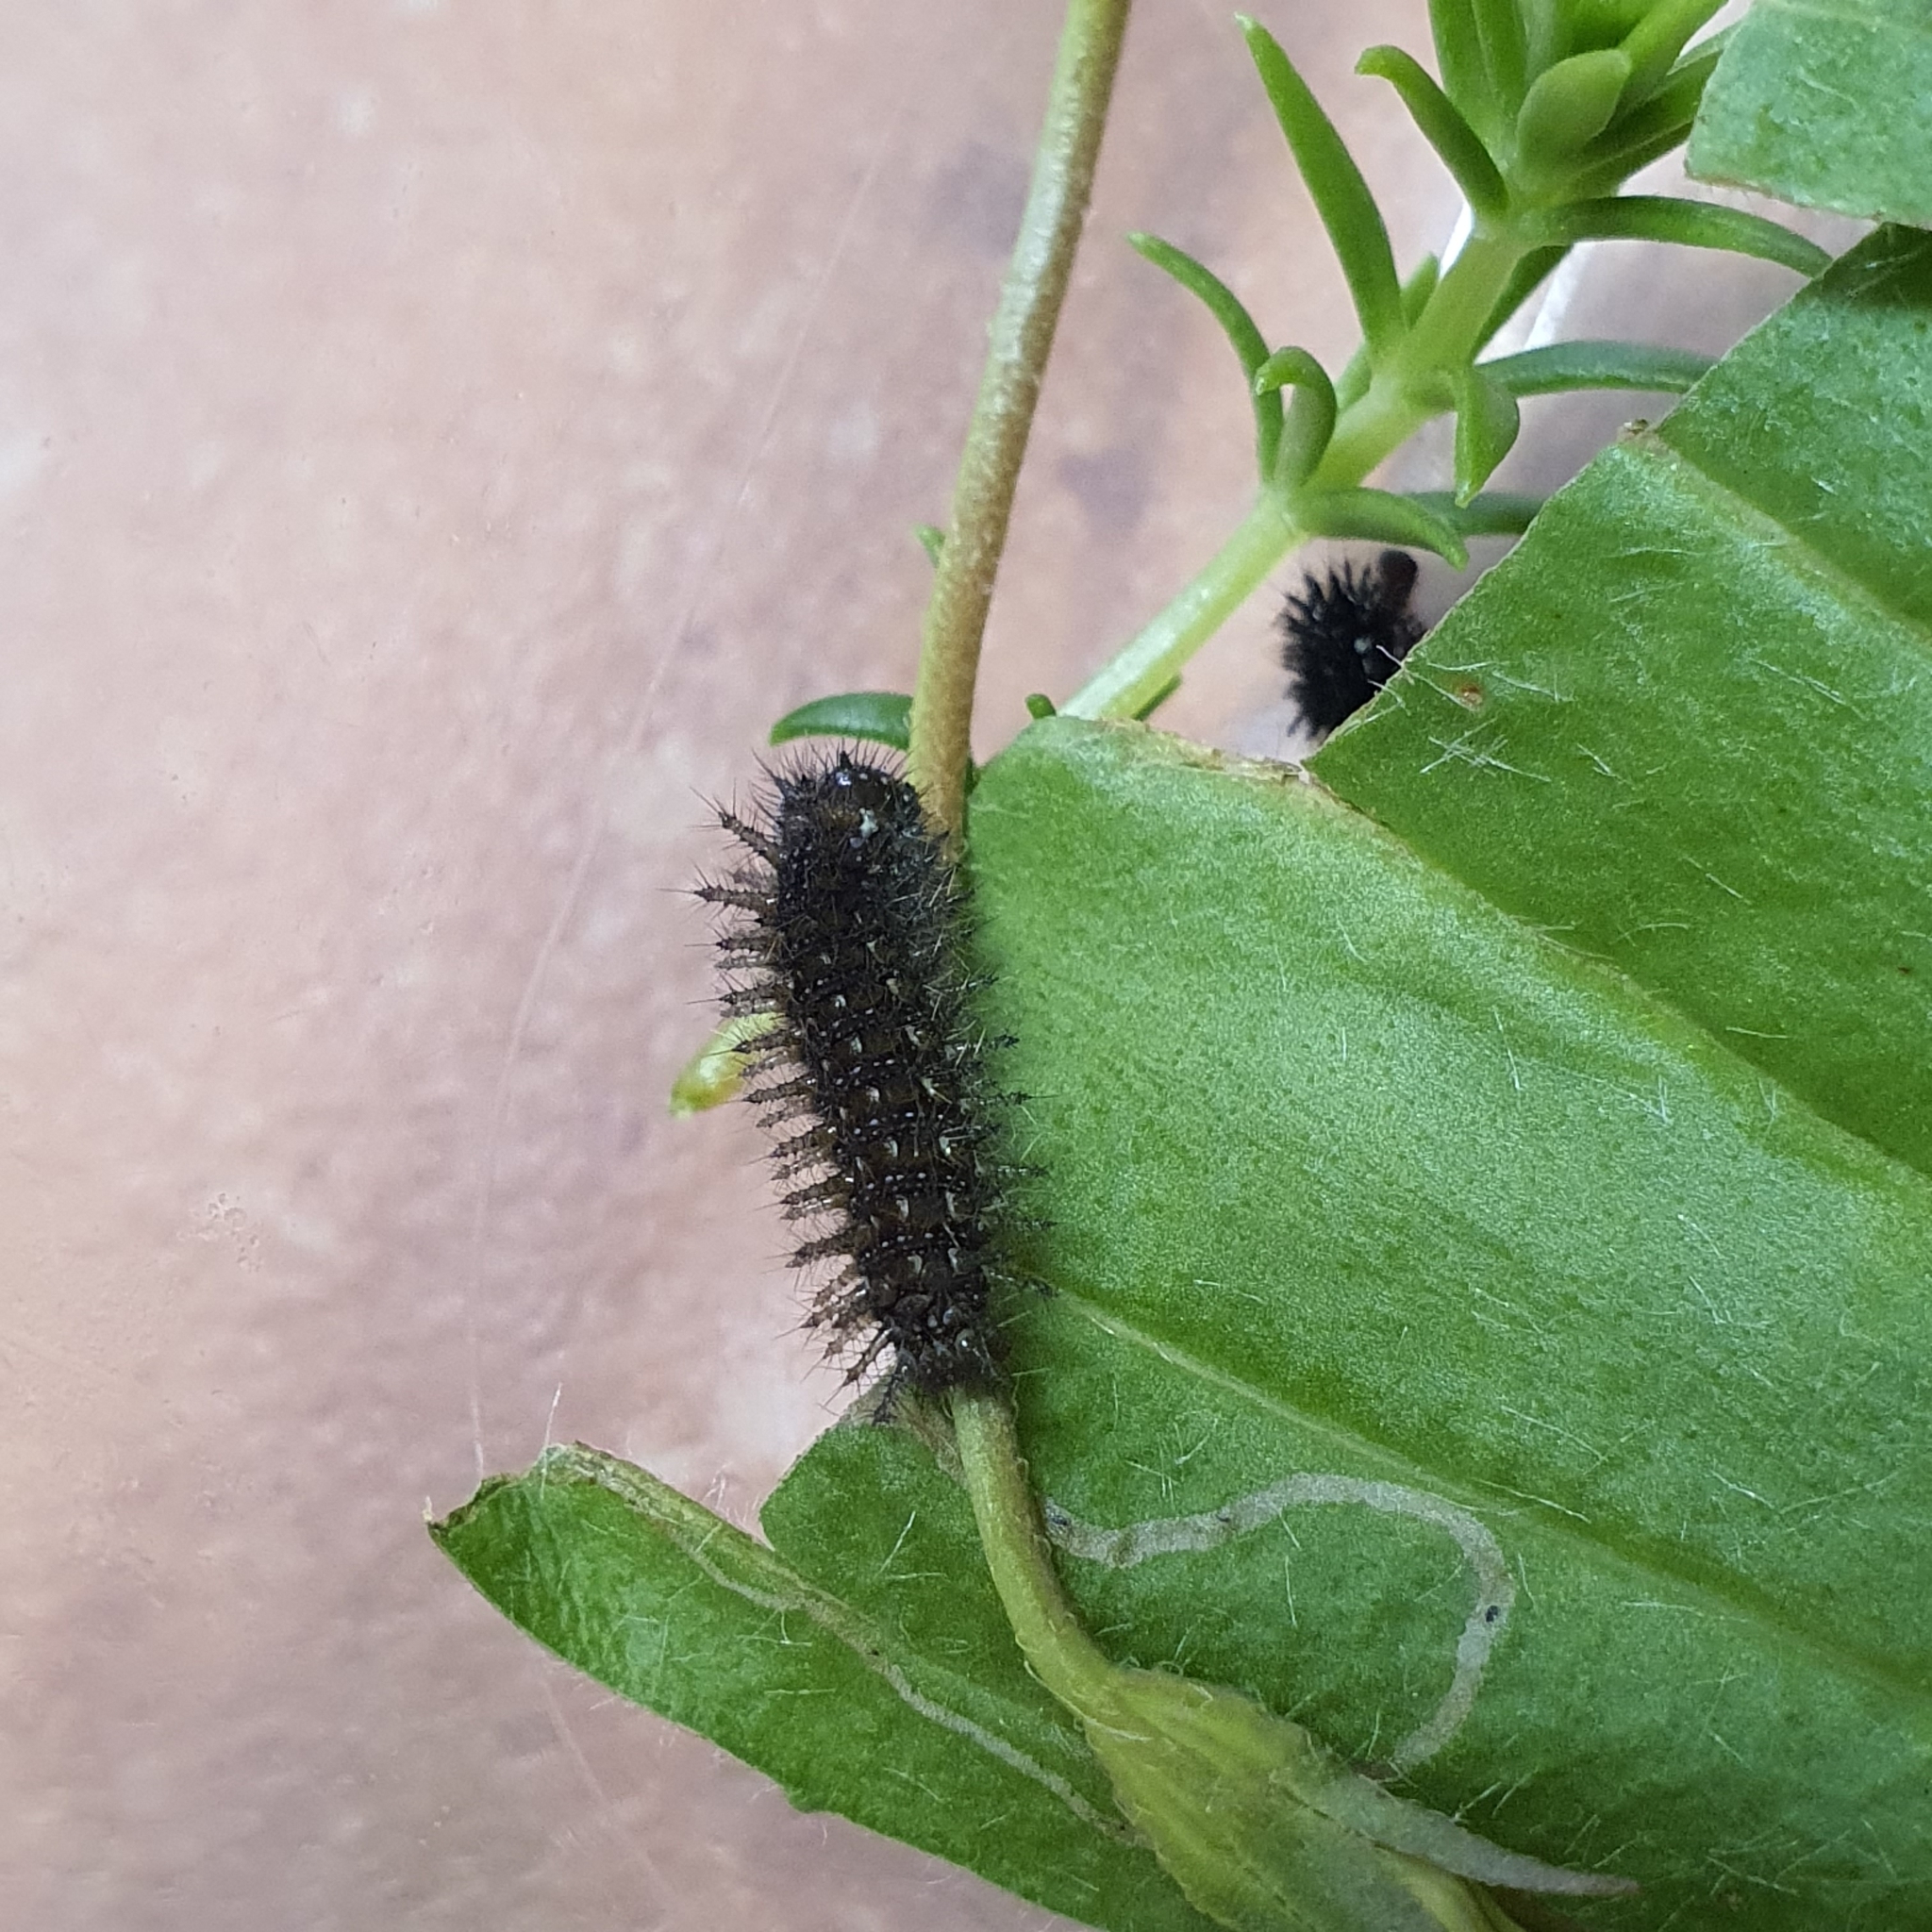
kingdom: Animalia
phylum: Arthropoda
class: Insecta
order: Lepidoptera
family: Nymphalidae
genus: Junonia
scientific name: Junonia villida
